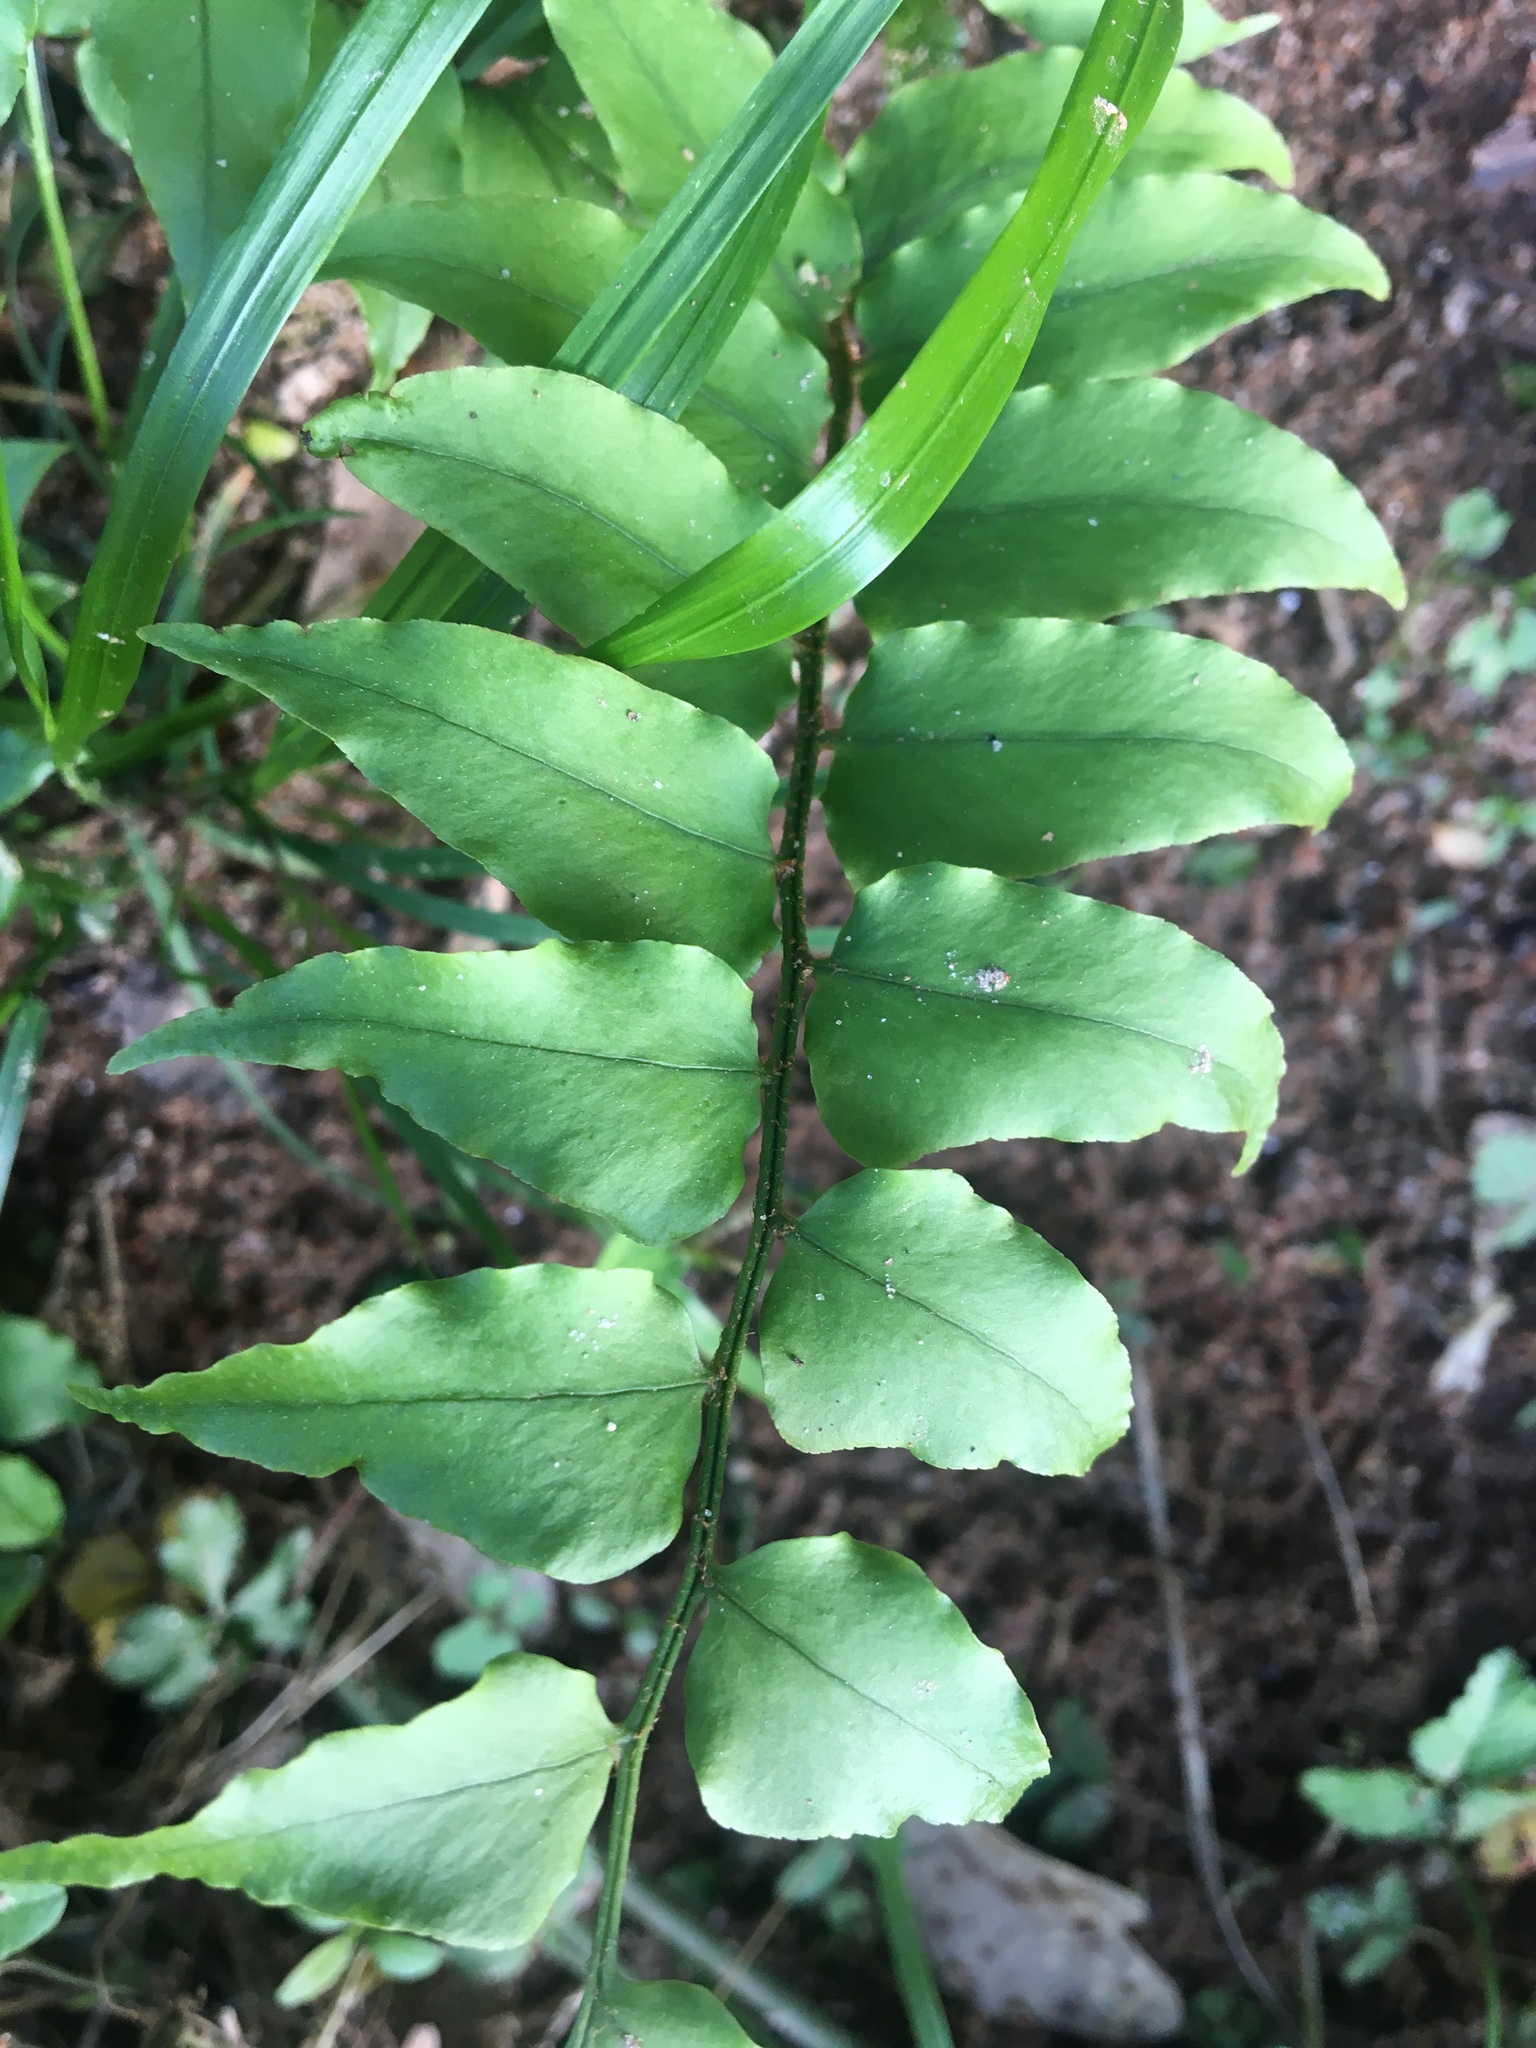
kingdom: Plantae
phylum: Tracheophyta
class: Polypodiopsida
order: Polypodiales
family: Dryopteridaceae
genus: Cyrtomium
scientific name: Cyrtomium fortunei
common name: Asian netvein hollyfern
